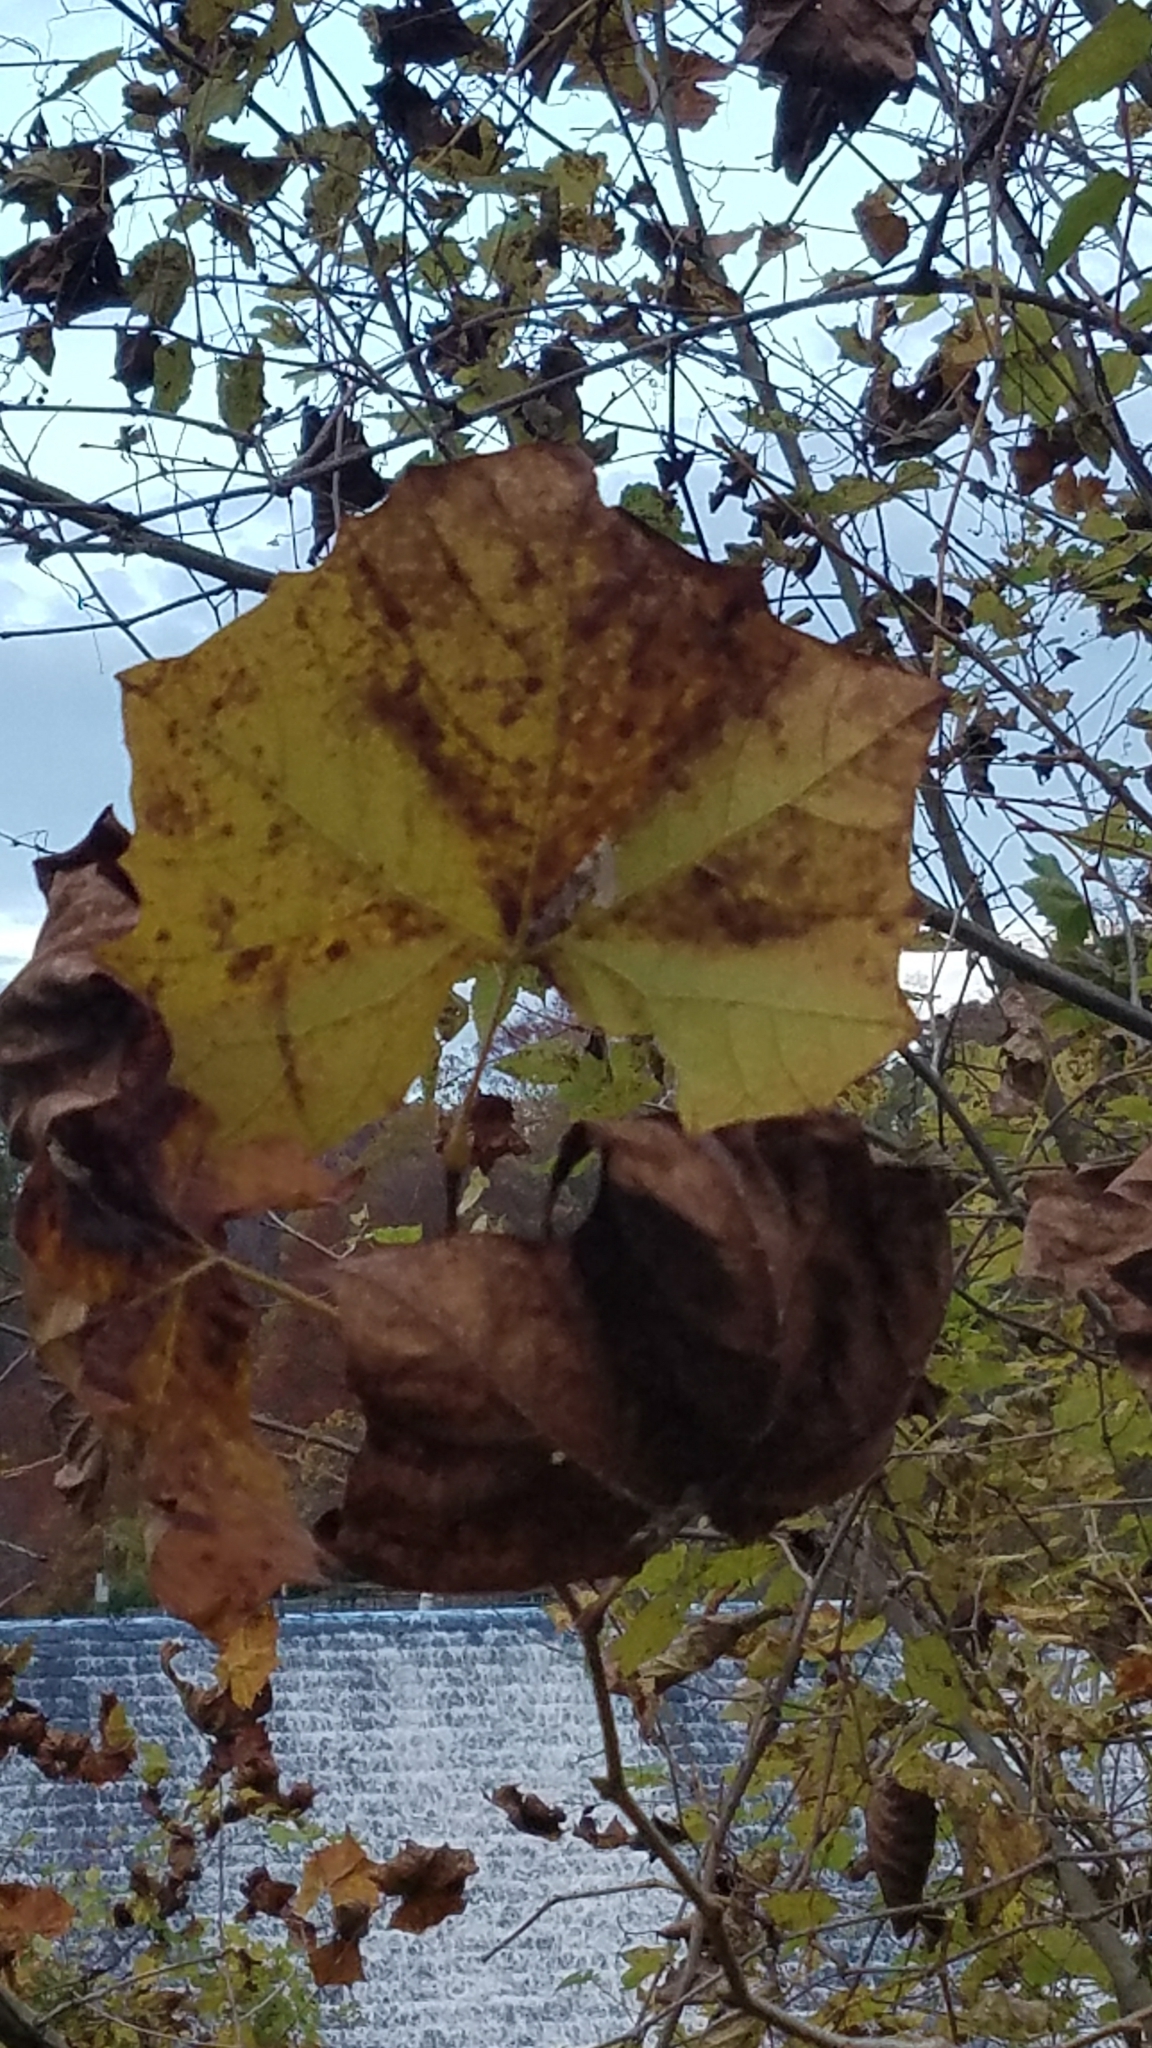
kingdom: Plantae
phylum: Tracheophyta
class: Magnoliopsida
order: Proteales
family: Platanaceae
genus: Platanus
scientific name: Platanus occidentalis
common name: American sycamore
